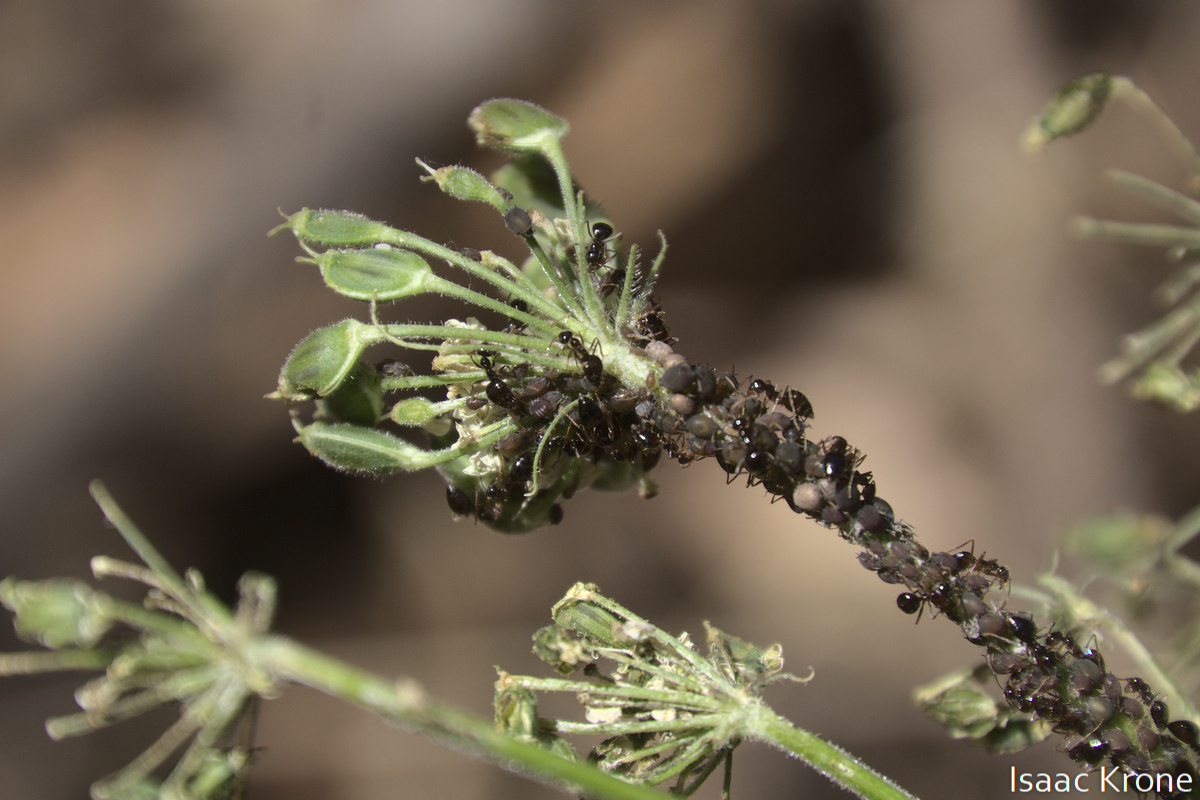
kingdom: Animalia
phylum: Arthropoda
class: Insecta
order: Hymenoptera
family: Formicidae
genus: Prenolepis
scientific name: Prenolepis imparis
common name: Small honey ant
